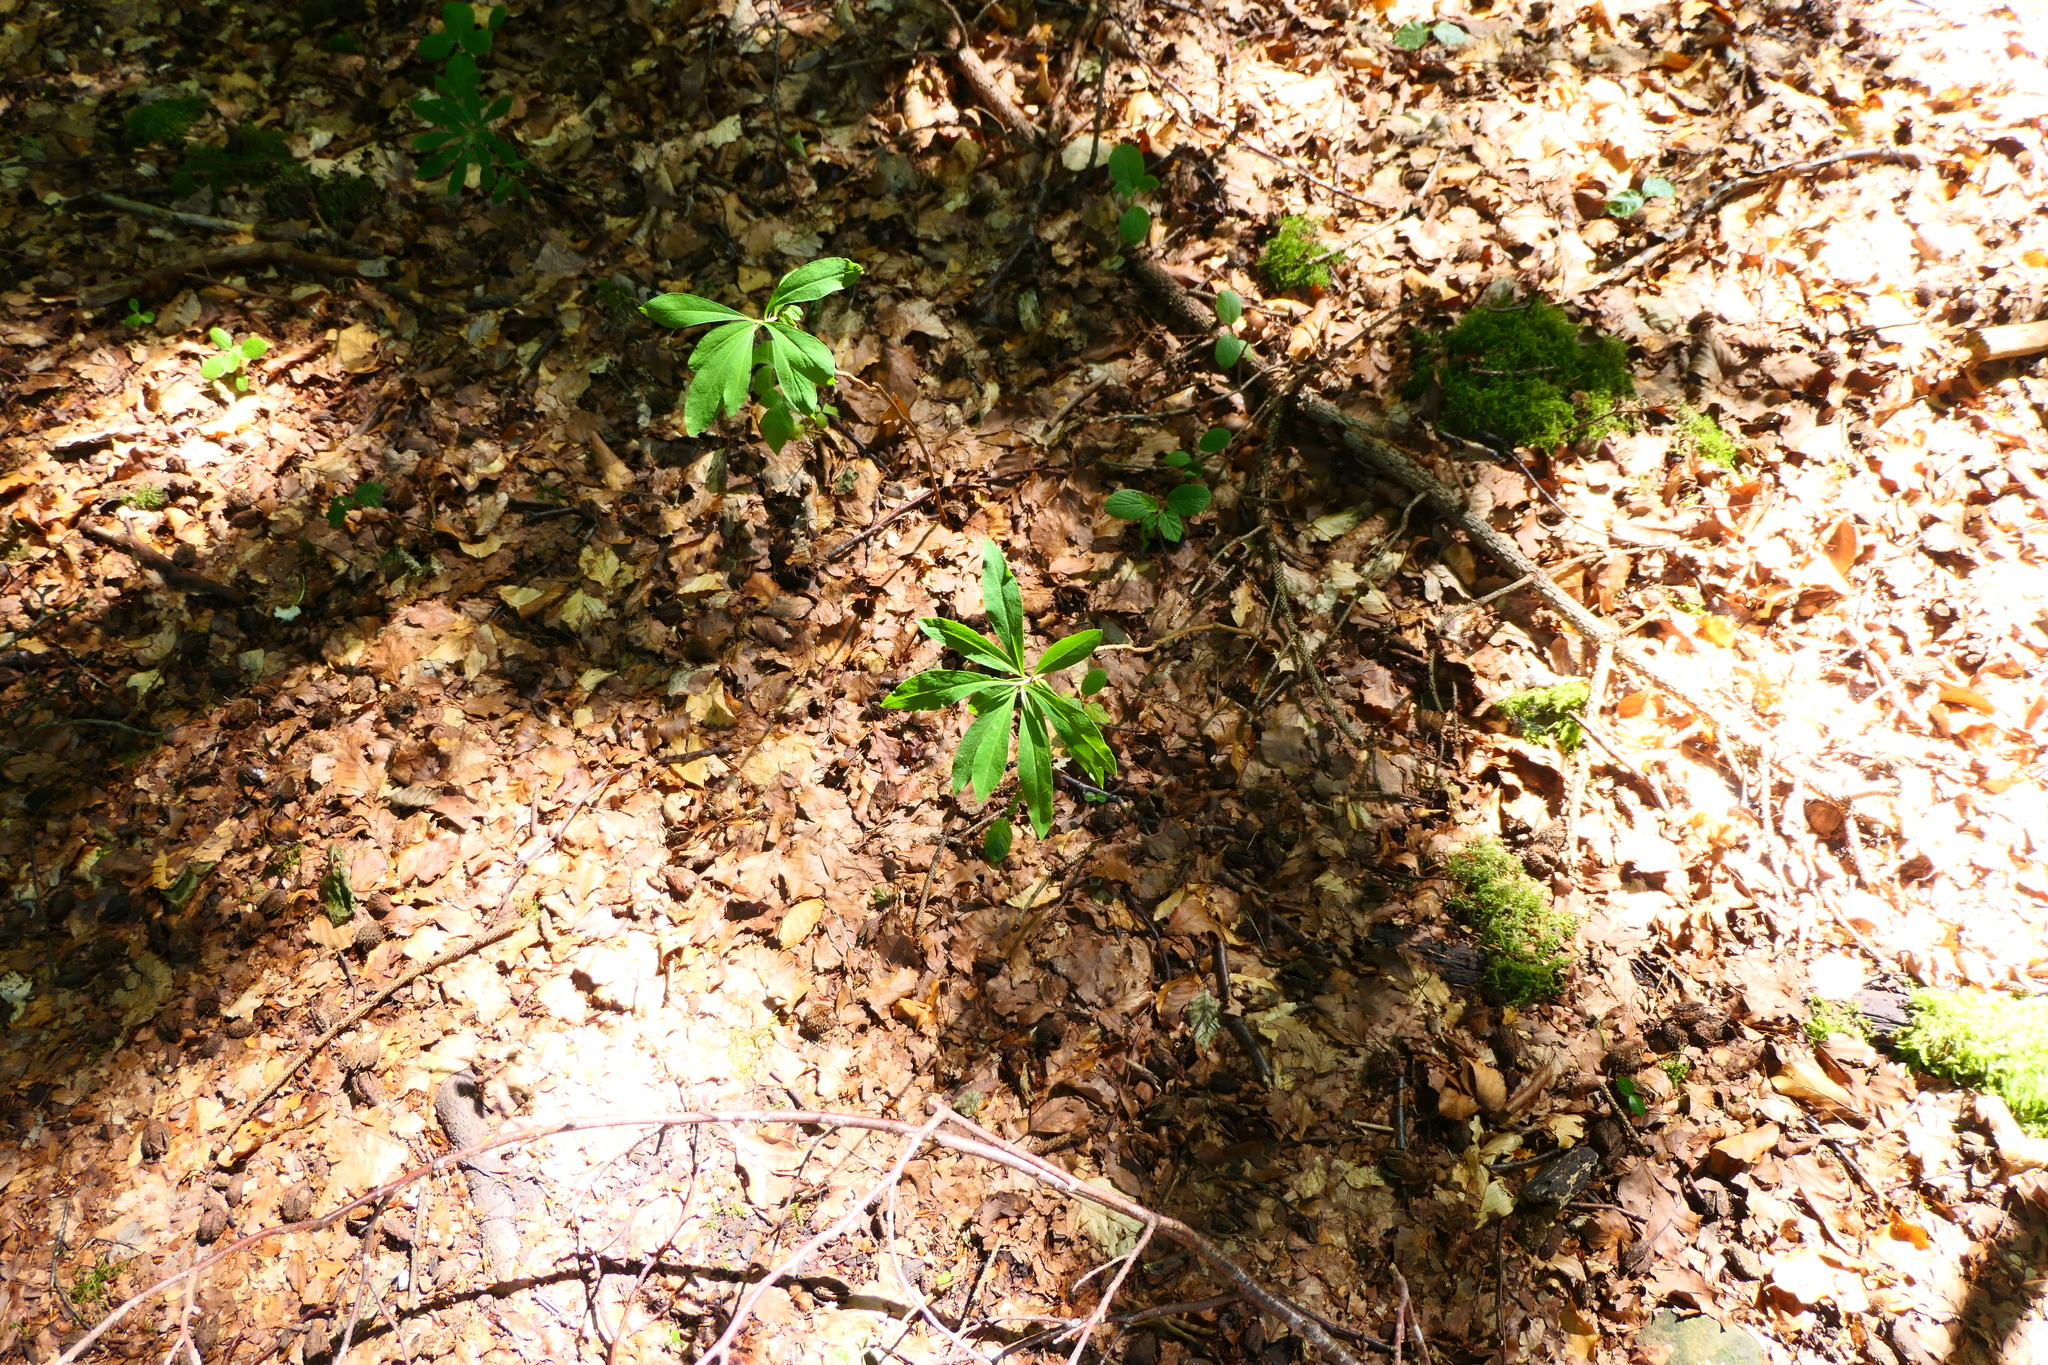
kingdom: Plantae
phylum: Tracheophyta
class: Magnoliopsida
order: Malvales
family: Thymelaeaceae
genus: Daphne
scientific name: Daphne mezereum
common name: Mezereon
